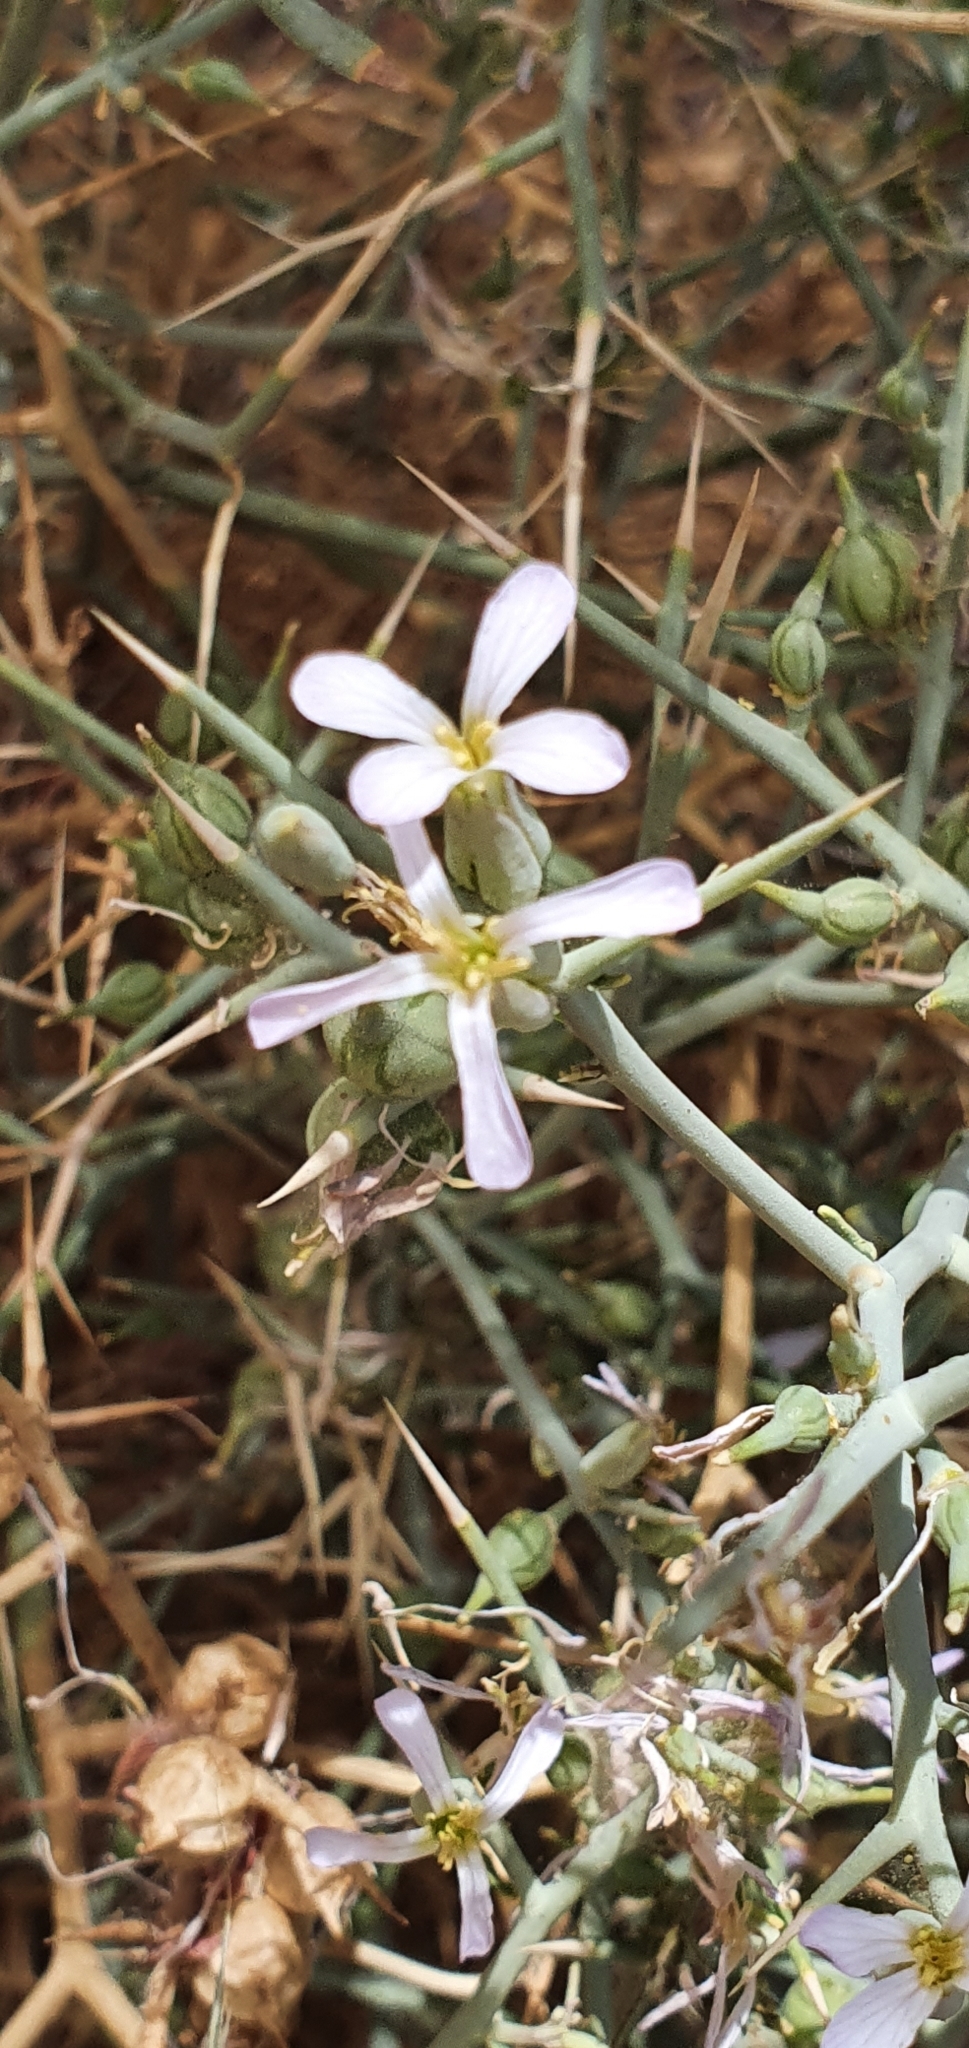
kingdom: Plantae
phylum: Tracheophyta
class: Magnoliopsida
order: Brassicales
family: Brassicaceae
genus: Zilla
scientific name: Zilla spinosa
